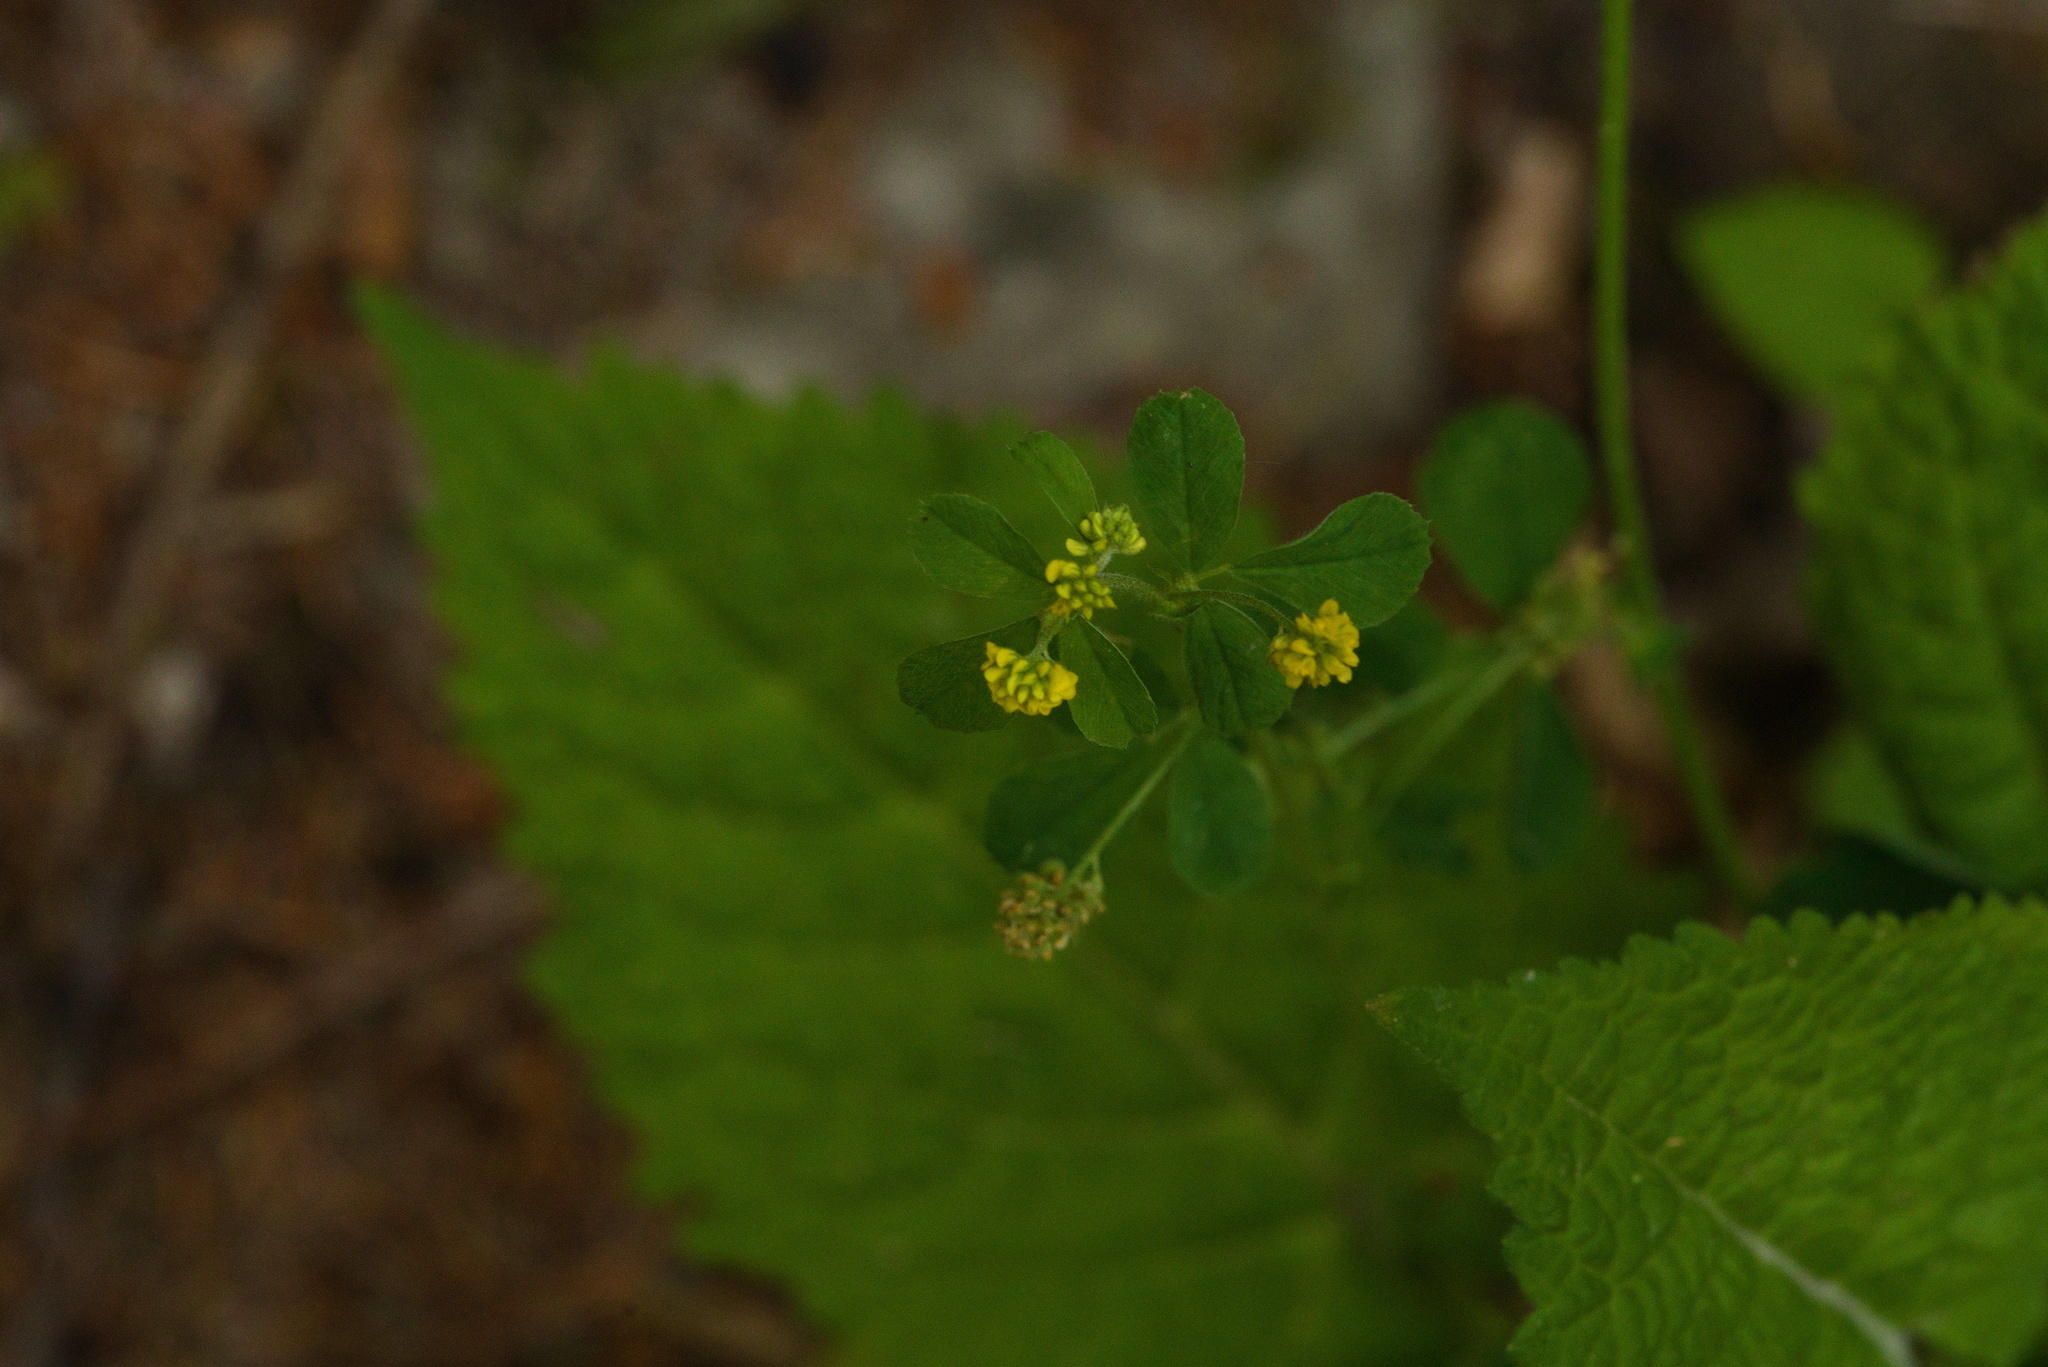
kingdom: Plantae
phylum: Tracheophyta
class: Magnoliopsida
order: Fabales
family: Fabaceae
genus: Medicago
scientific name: Medicago lupulina
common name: Black medick
